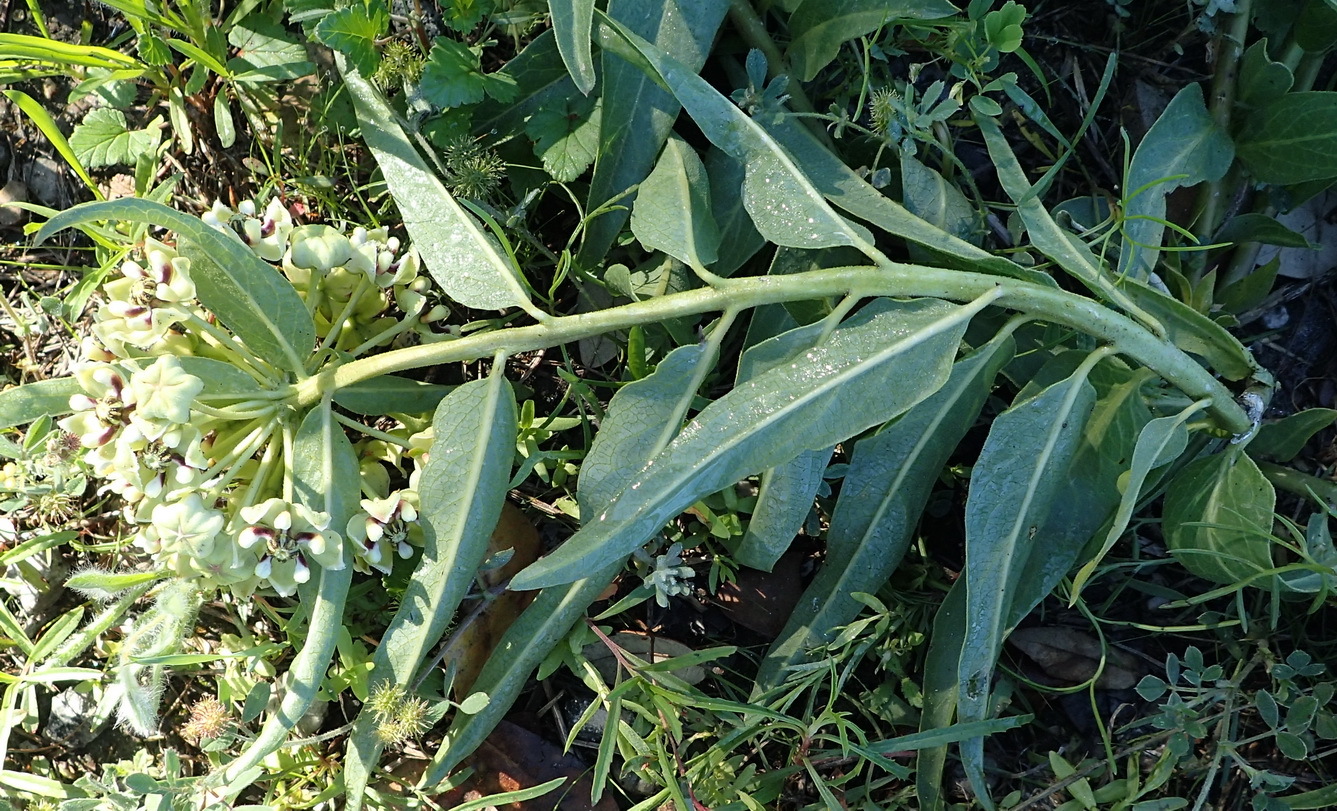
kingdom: Plantae
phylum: Tracheophyta
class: Magnoliopsida
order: Gentianales
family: Apocynaceae
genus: Asclepias
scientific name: Asclepias asperula
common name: Antelope horns
